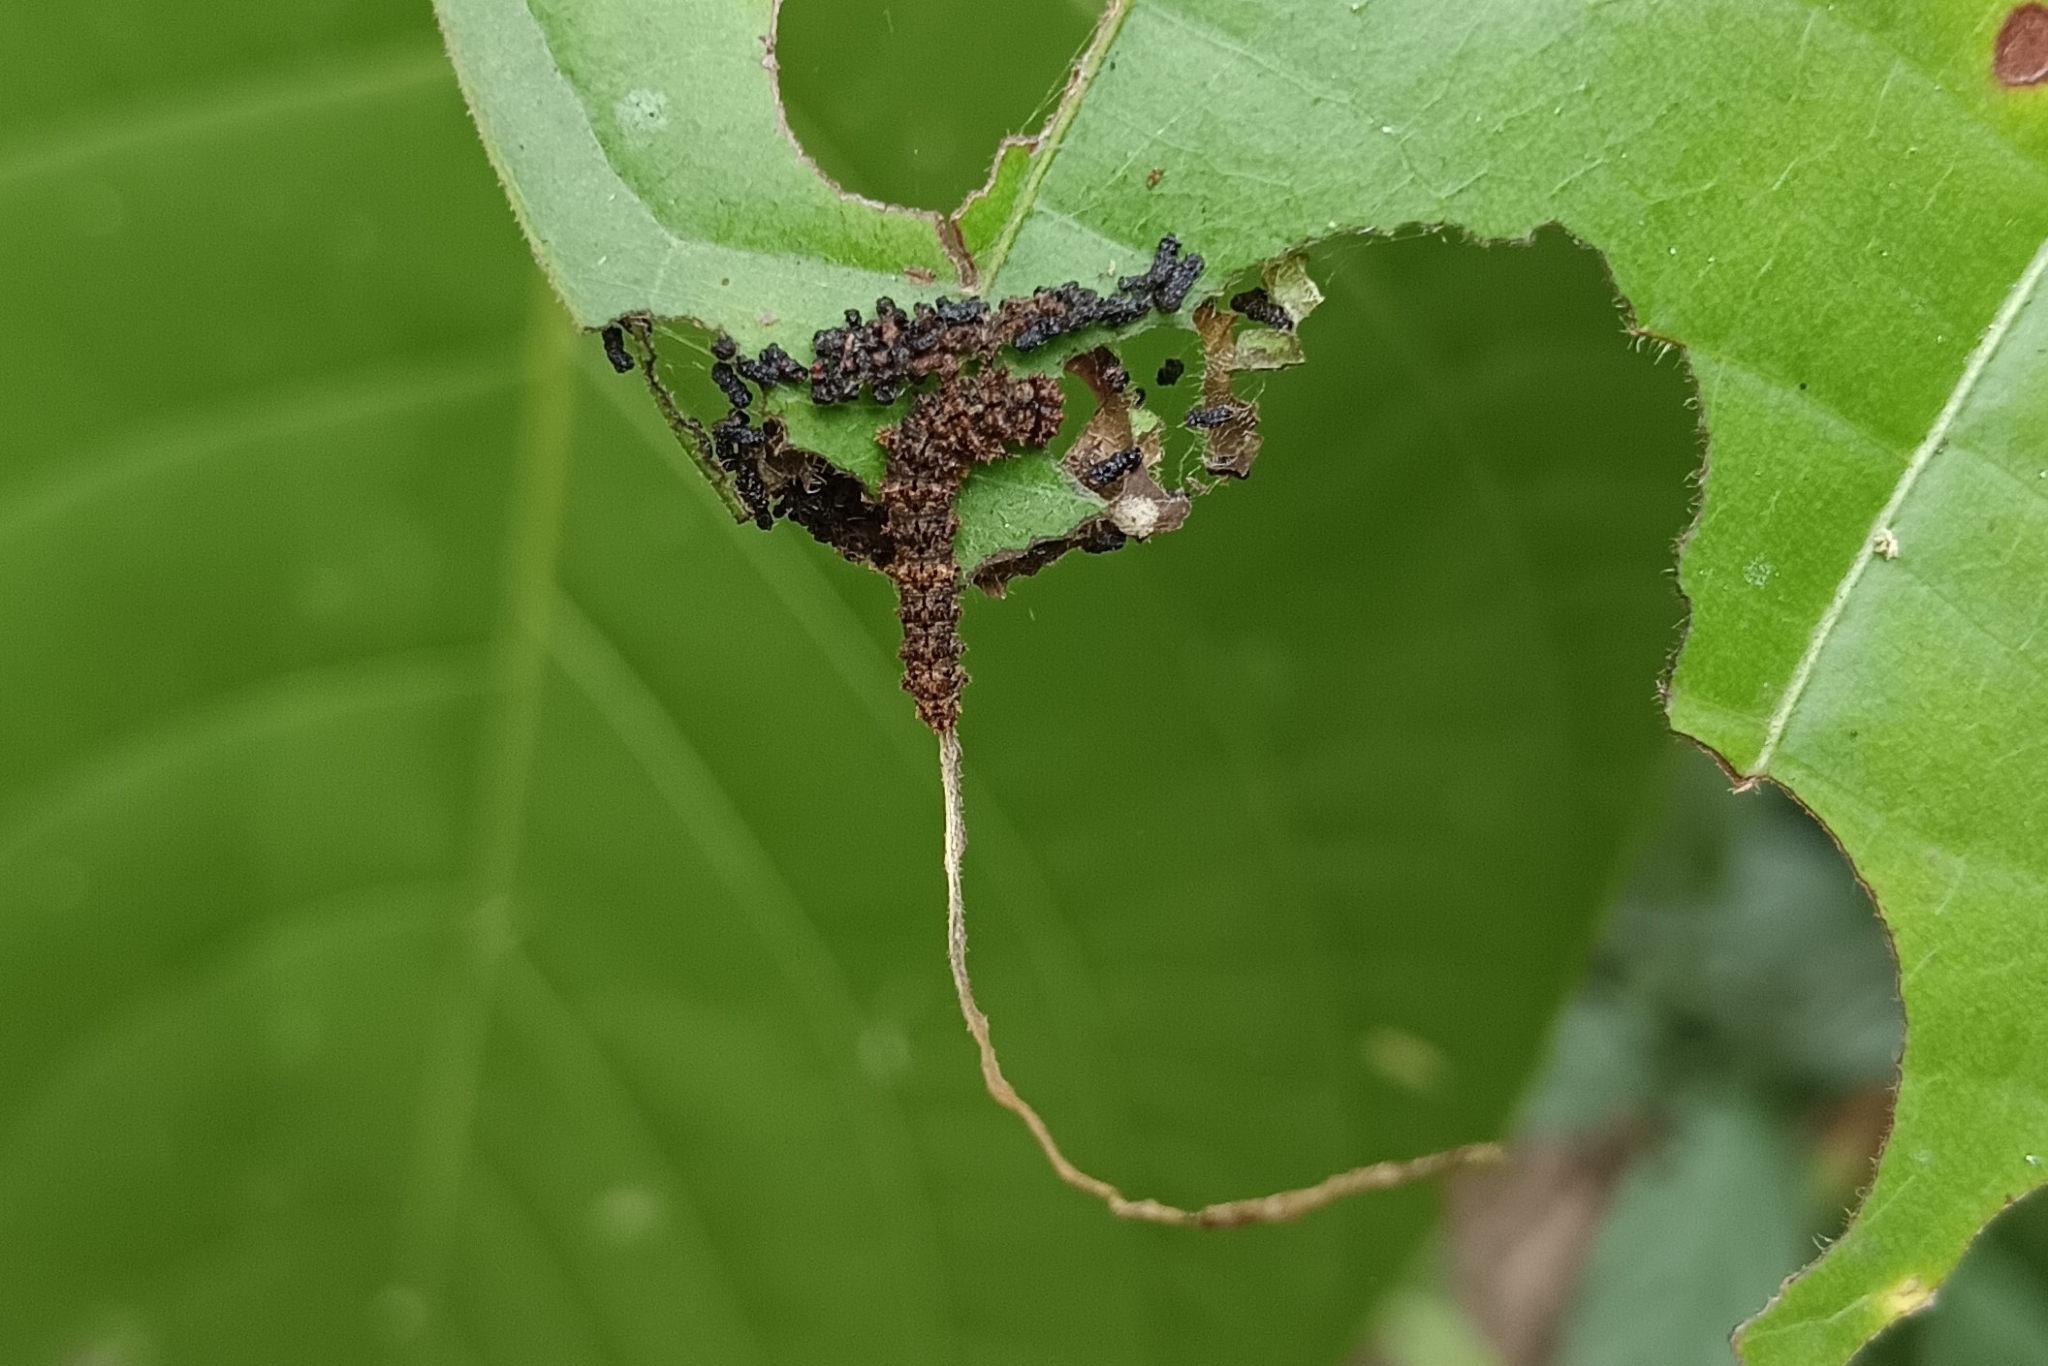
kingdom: Animalia
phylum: Arthropoda
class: Insecta
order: Lepidoptera
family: Nymphalidae
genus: Limenitis
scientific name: Limenitis Moduza procris
